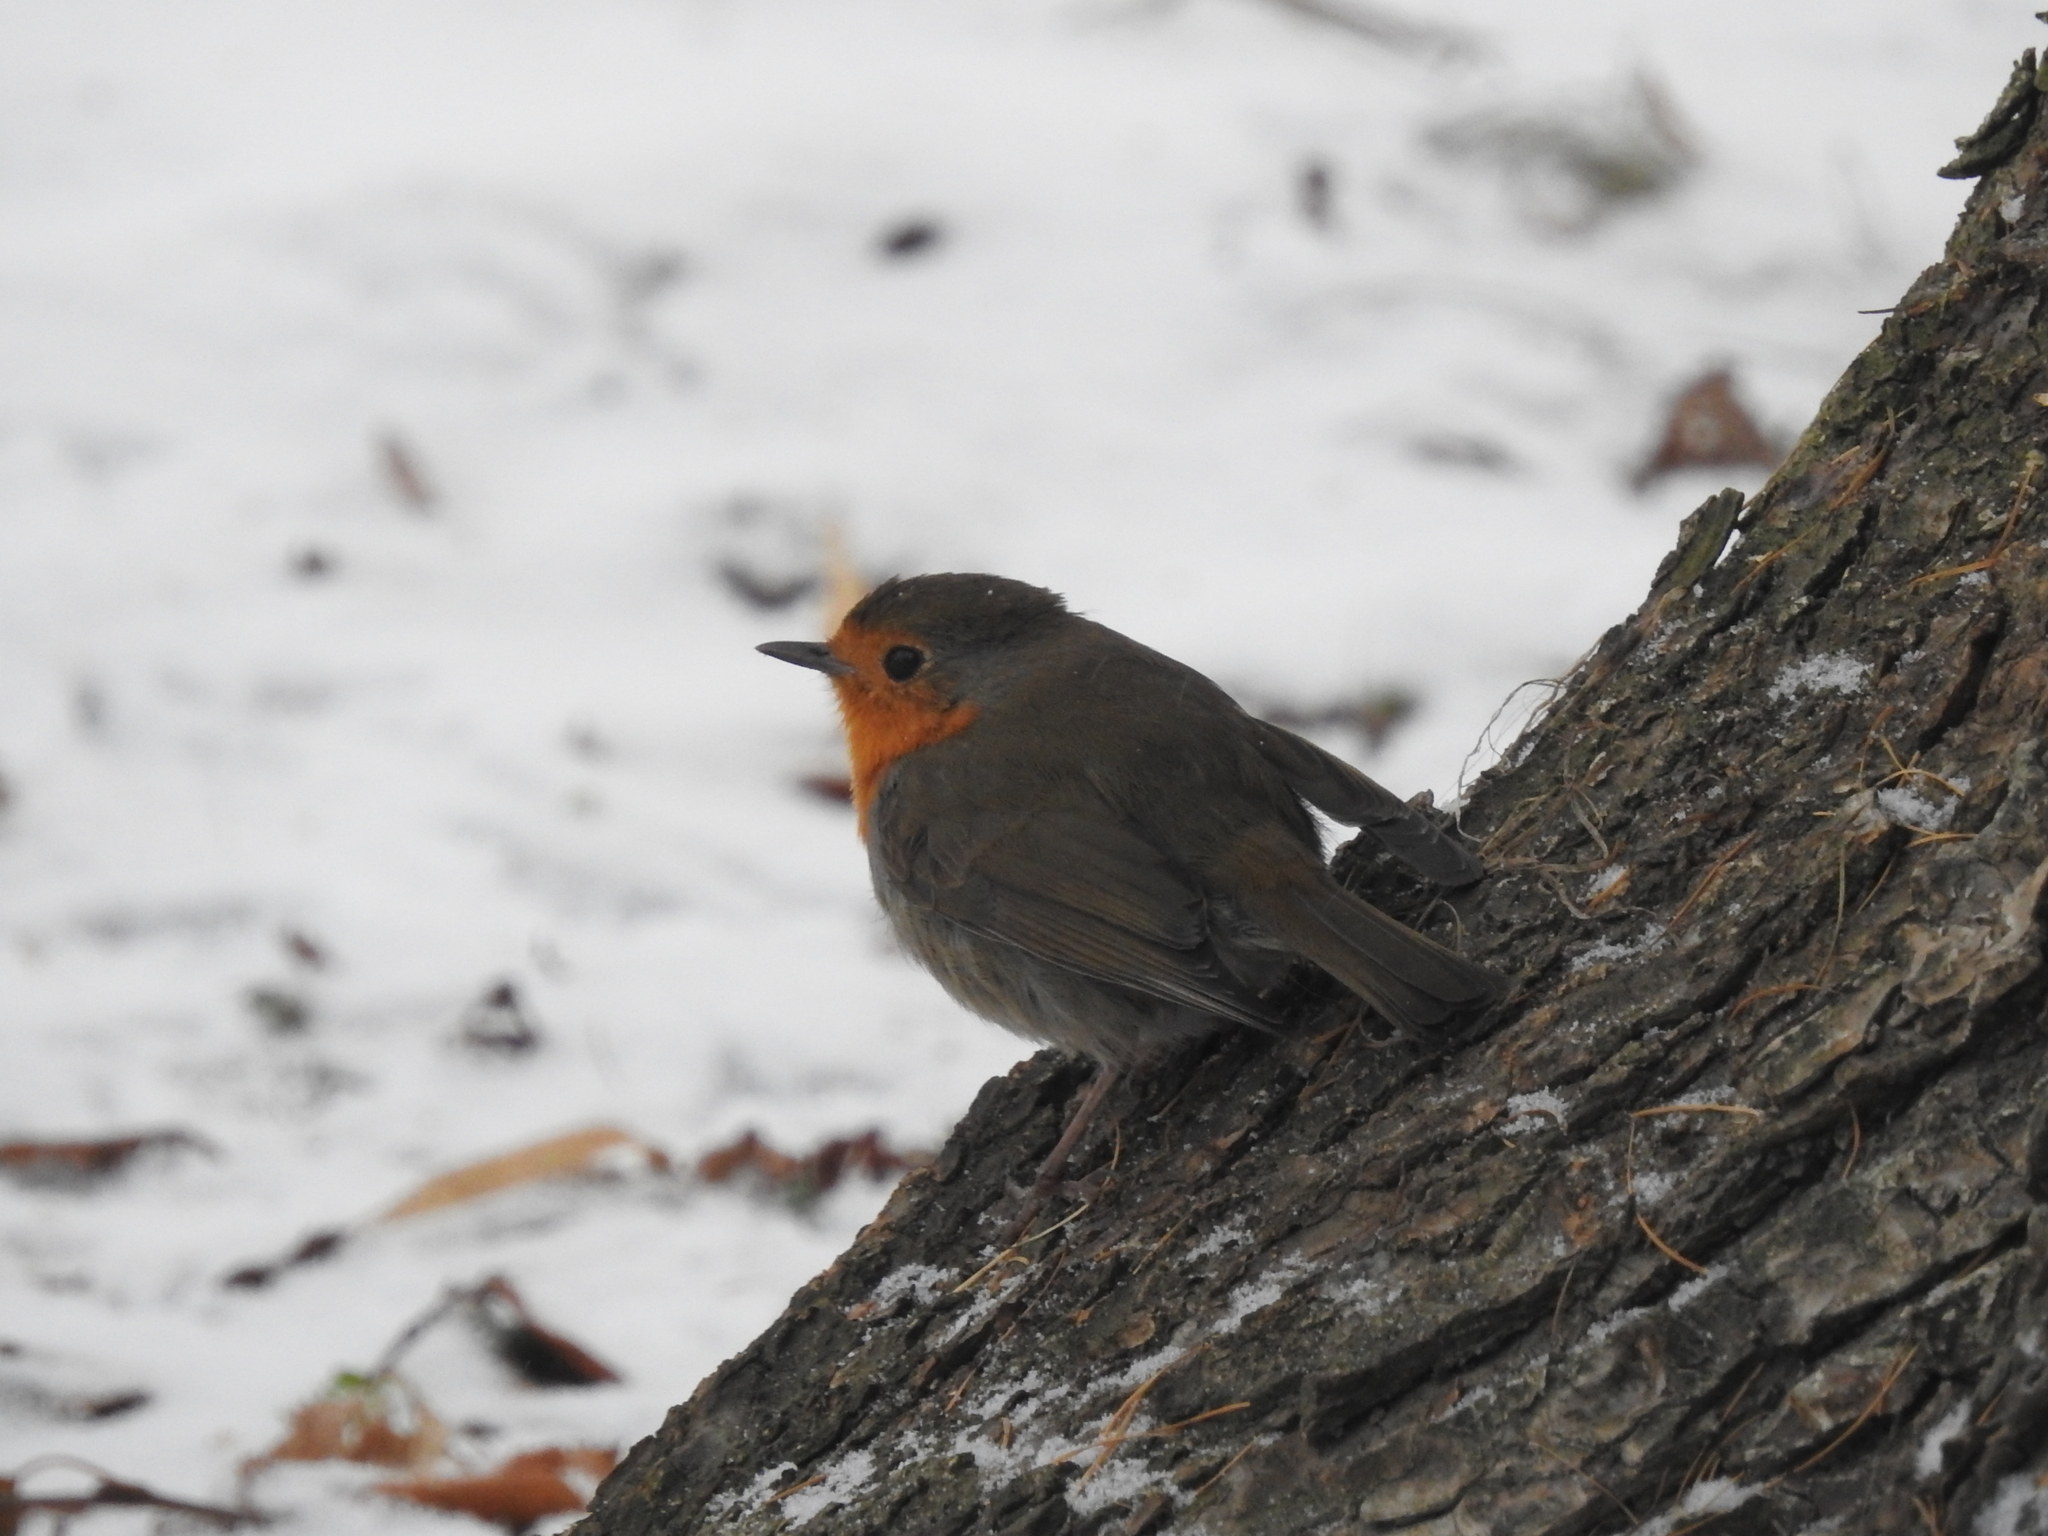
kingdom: Animalia
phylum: Chordata
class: Aves
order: Passeriformes
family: Muscicapidae
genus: Erithacus
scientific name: Erithacus rubecula
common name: European robin
